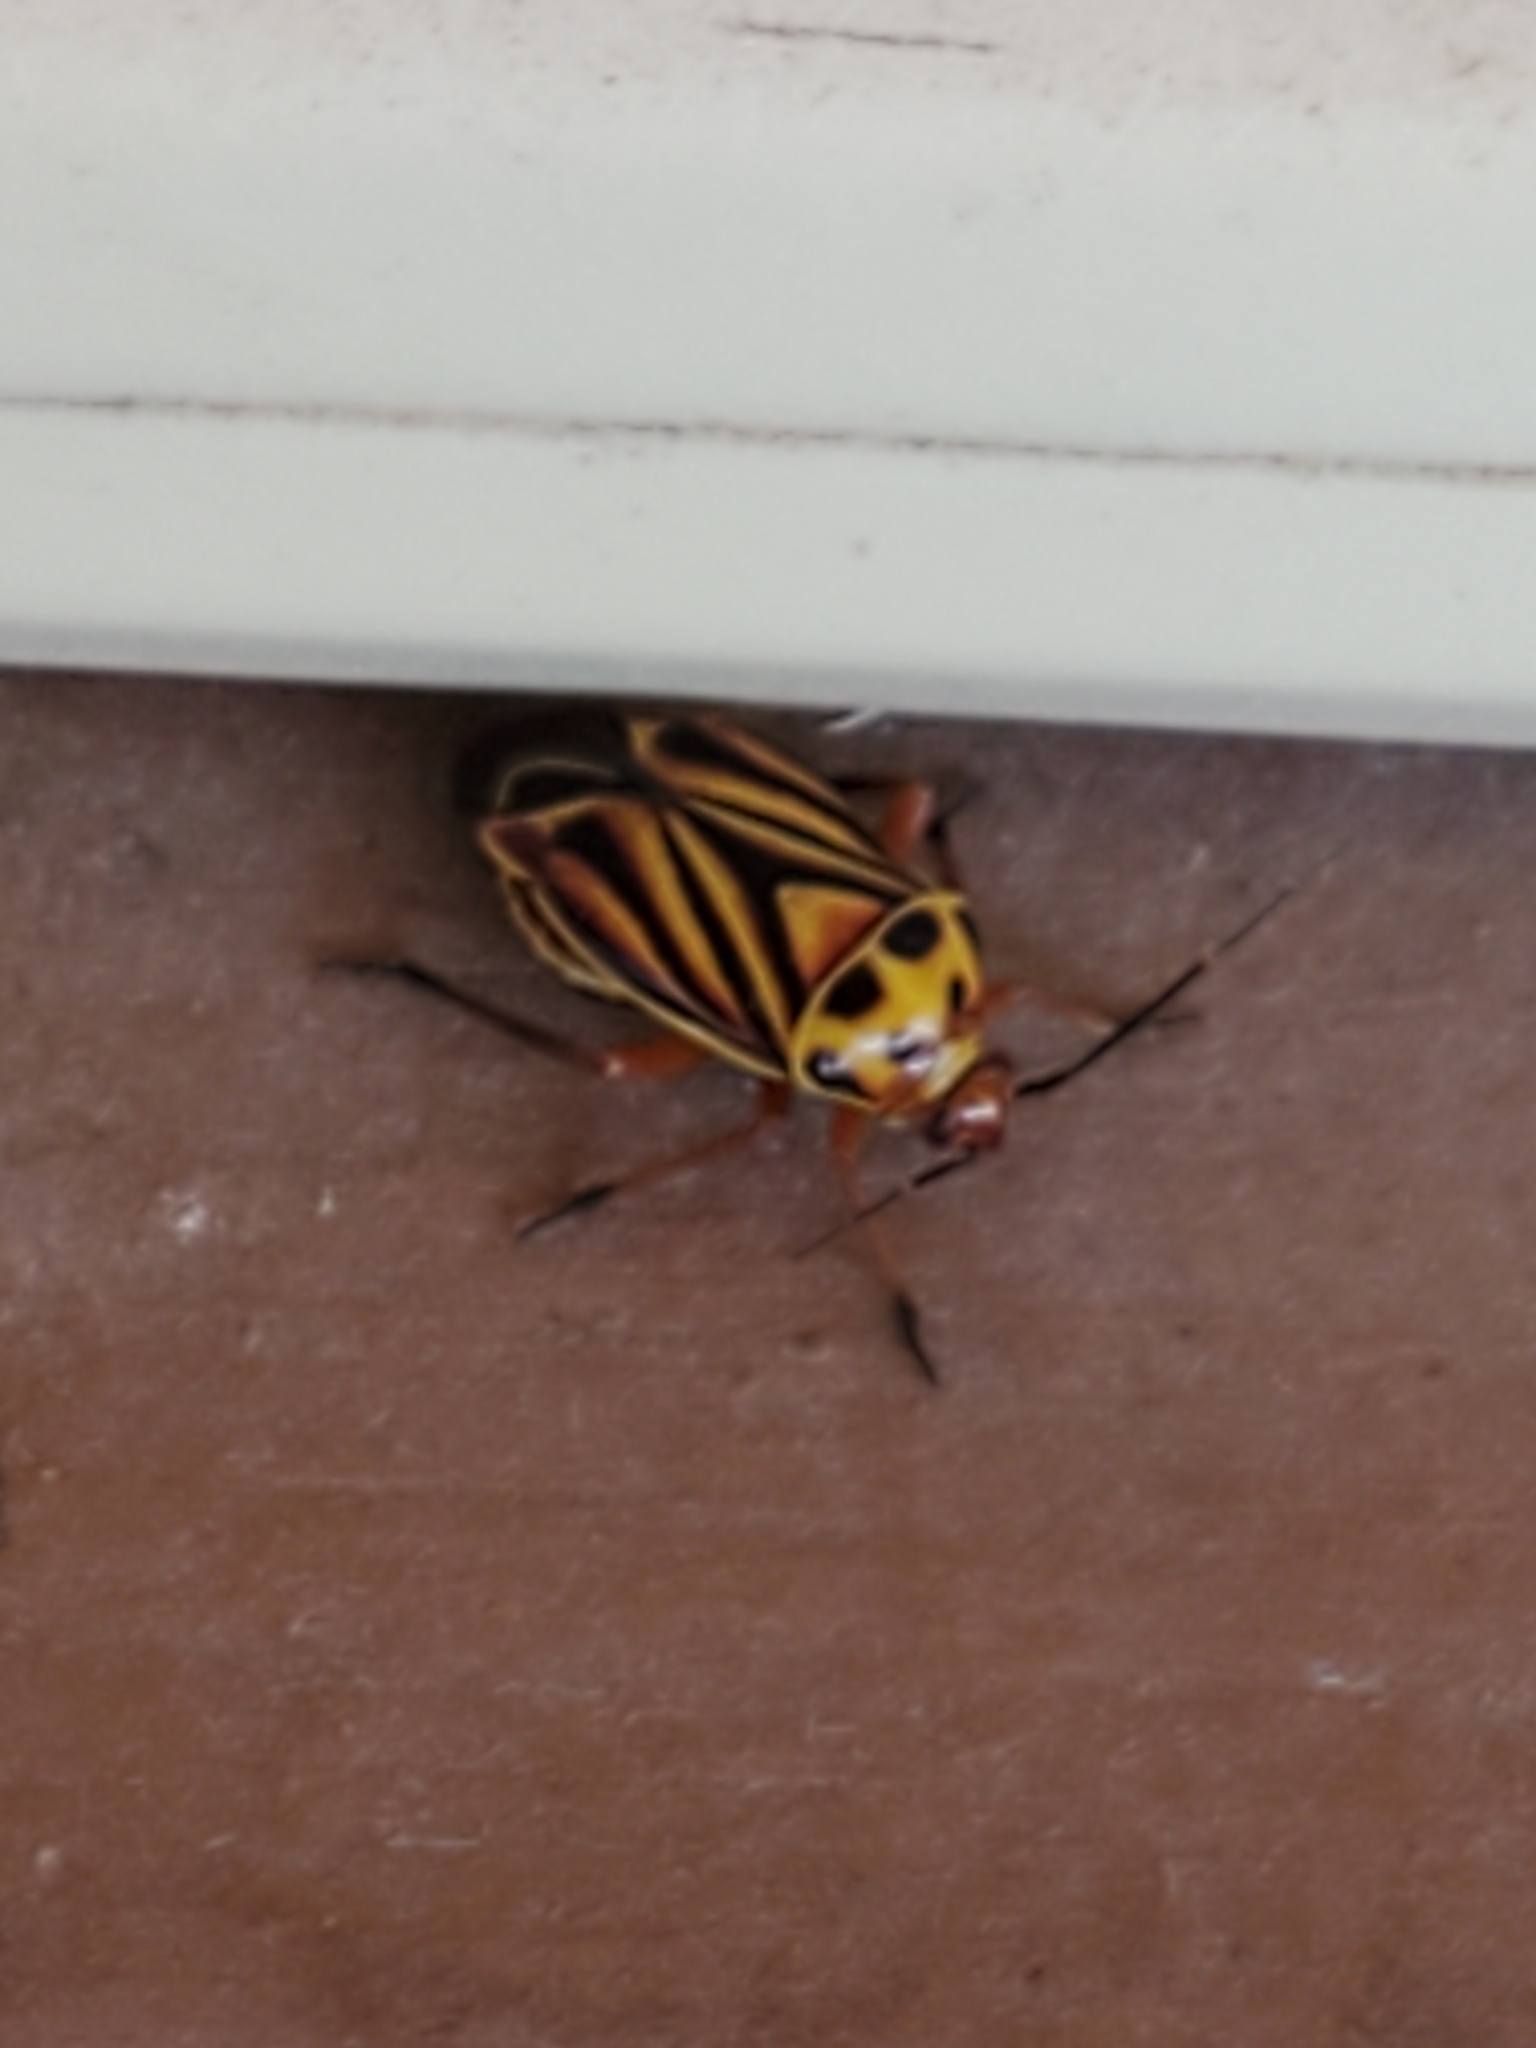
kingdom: Animalia
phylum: Arthropoda
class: Insecta
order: Hemiptera
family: Miridae
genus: Calocoris
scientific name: Calocoris barberi
